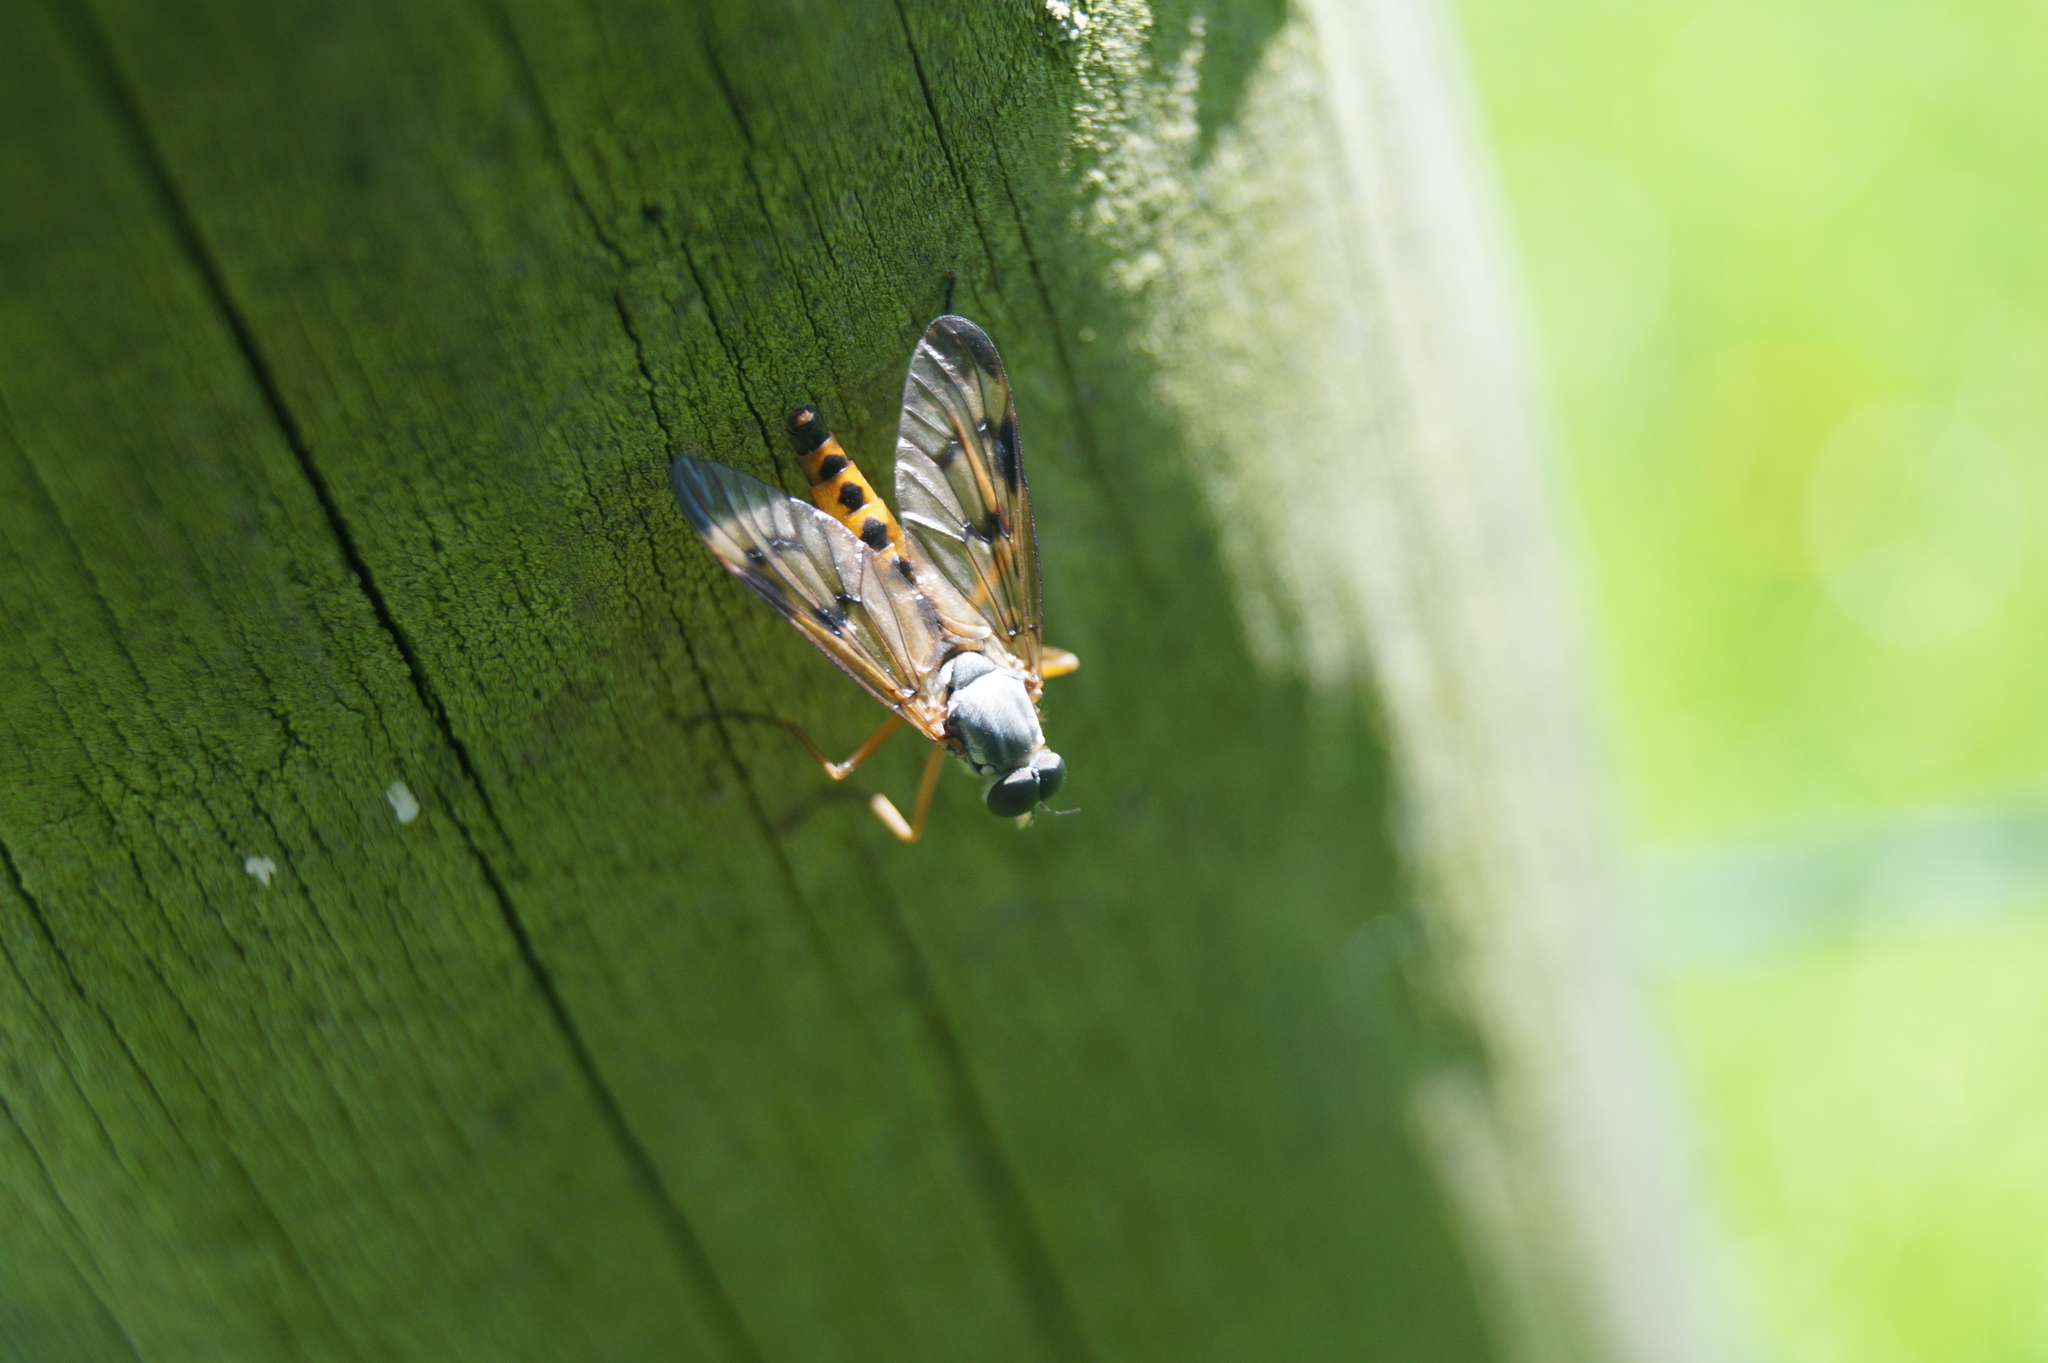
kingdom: Animalia
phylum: Arthropoda
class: Insecta
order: Diptera
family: Rhagionidae
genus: Rhagio
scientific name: Rhagio scolopacea
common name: Downlooker snipefly
